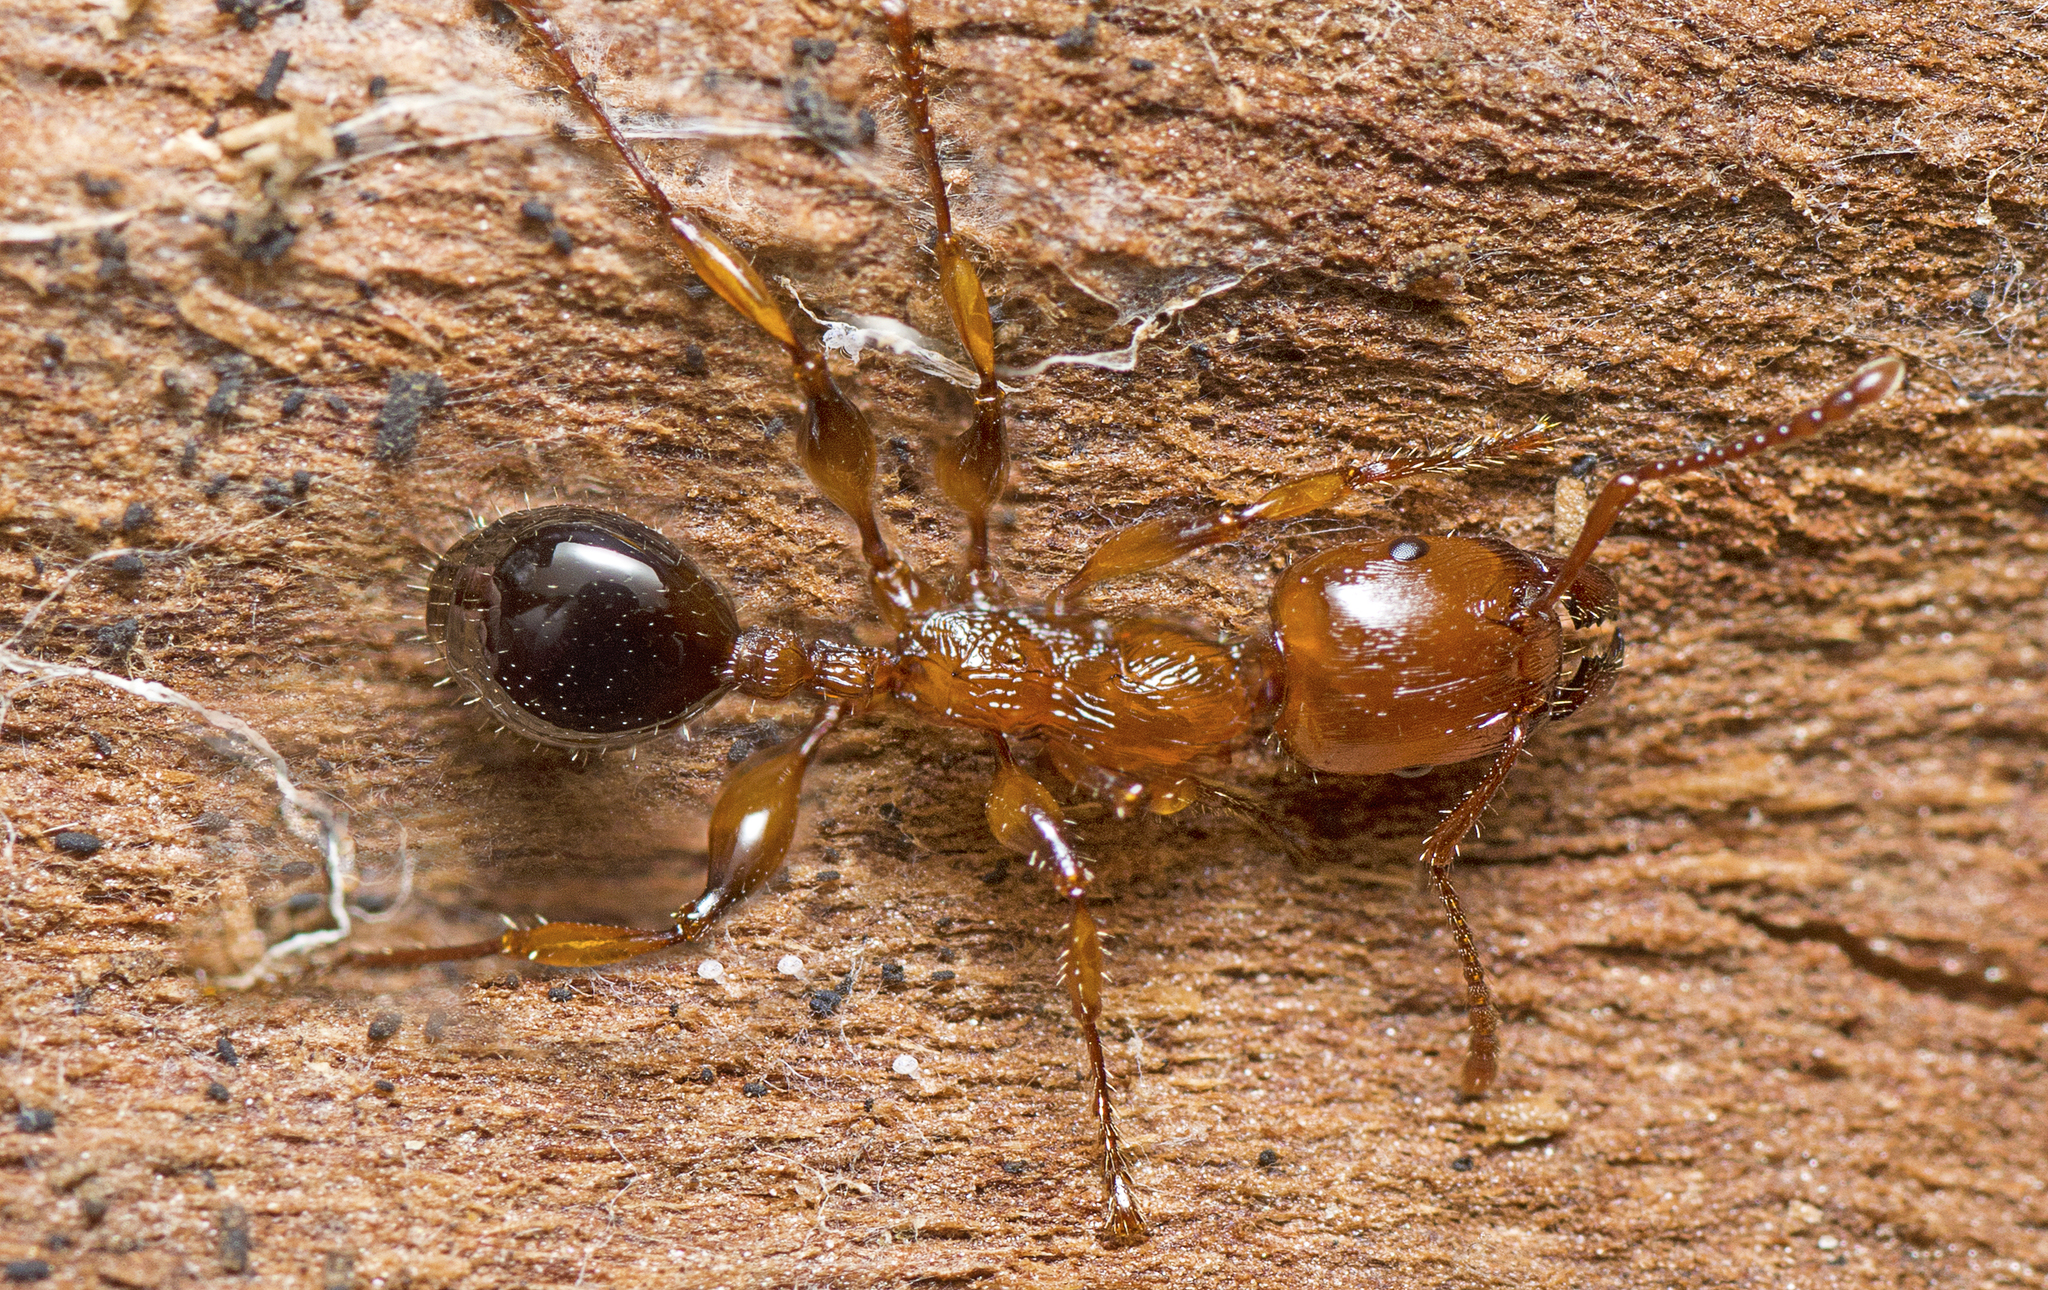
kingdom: Animalia
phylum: Arthropoda
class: Insecta
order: Hymenoptera
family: Formicidae
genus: Podomyrma
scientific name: Podomyrma gratiosa
